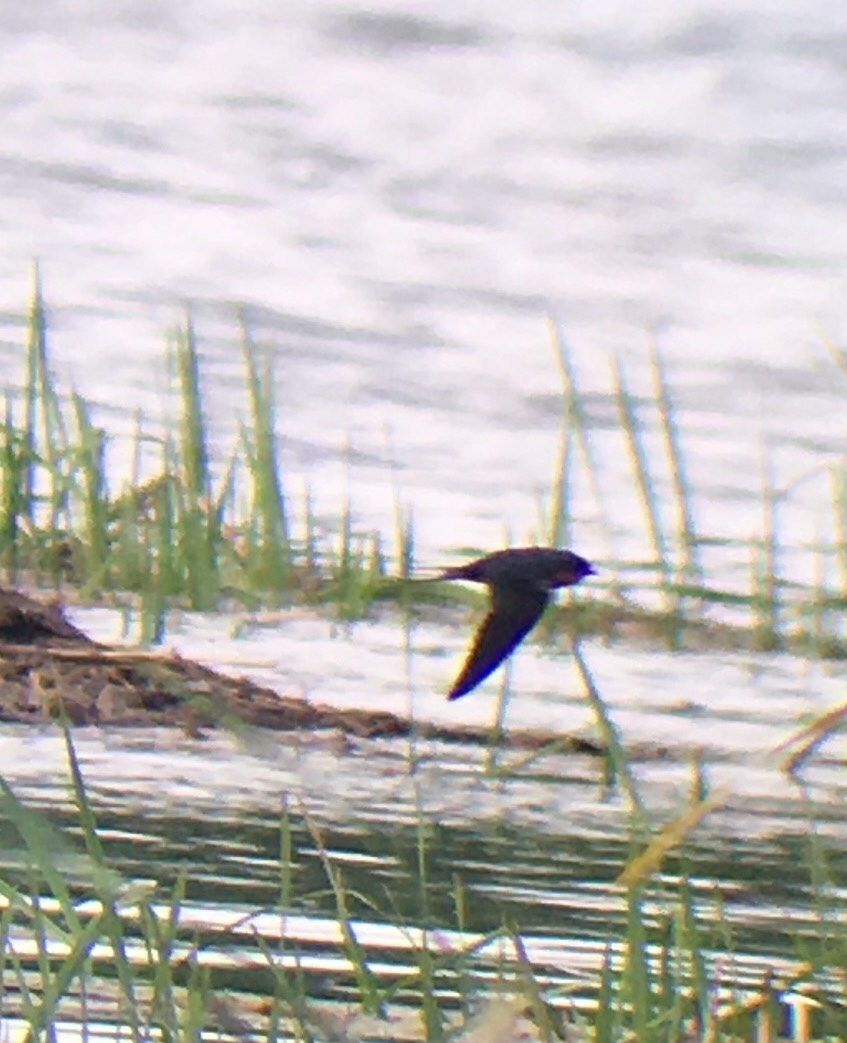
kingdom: Animalia
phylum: Chordata
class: Aves
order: Passeriformes
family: Hirundinidae
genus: Hirundo
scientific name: Hirundo rustica
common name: Barn swallow
